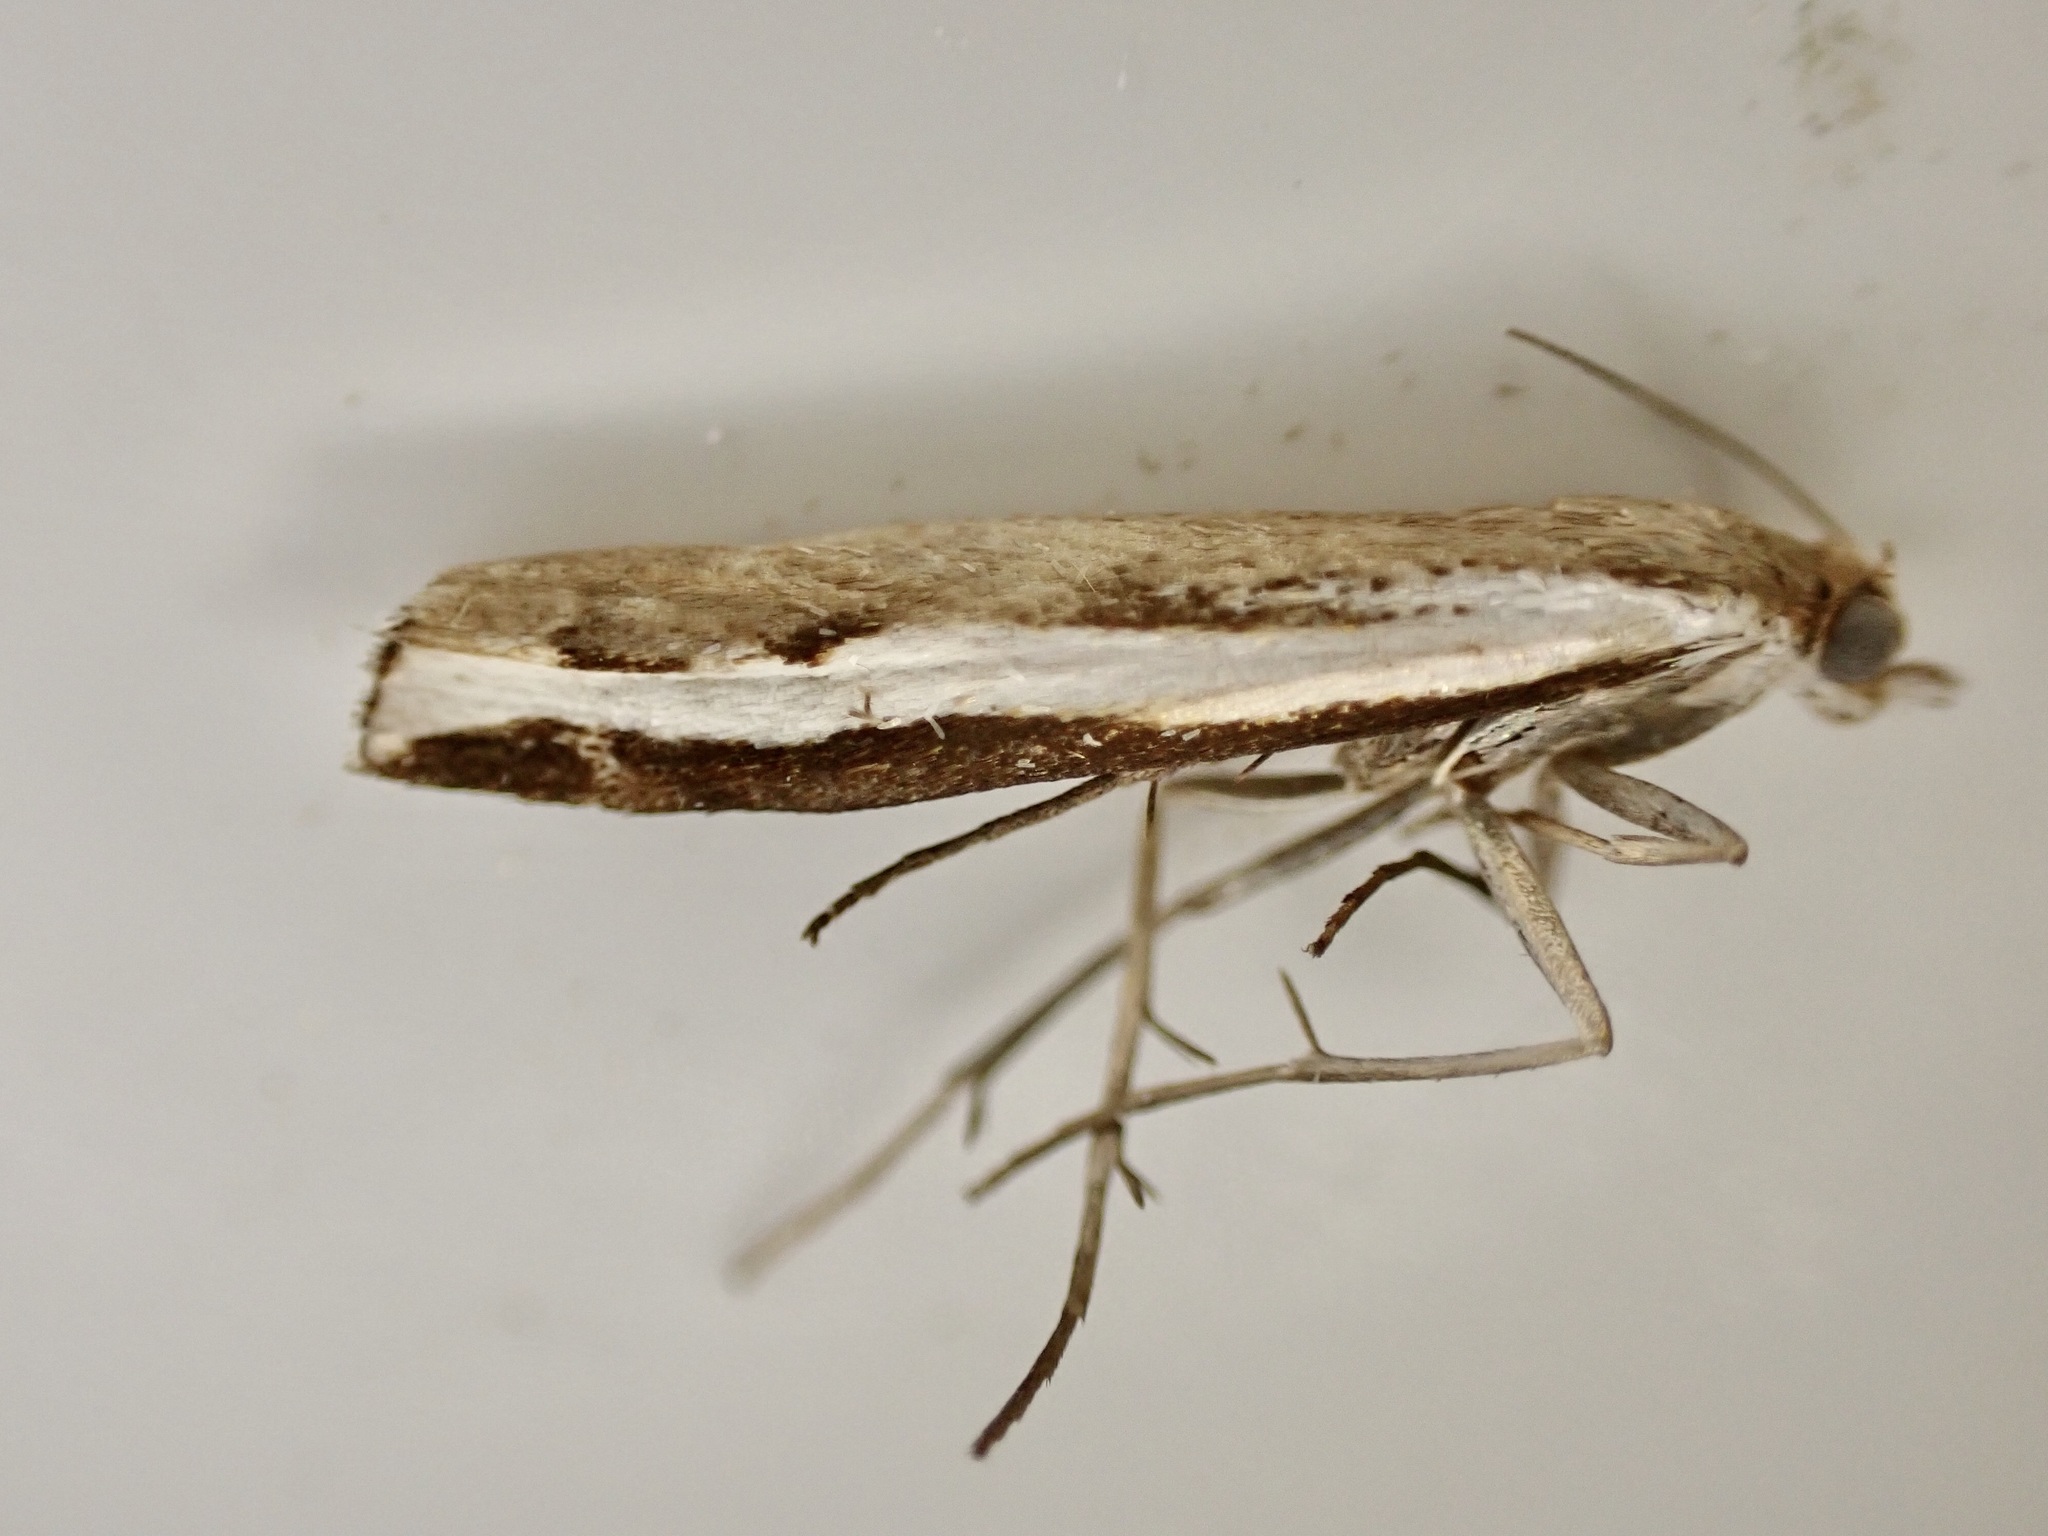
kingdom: Animalia
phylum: Arthropoda
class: Insecta
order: Lepidoptera
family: Crambidae
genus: Orocrambus
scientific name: Orocrambus flexuosellus
